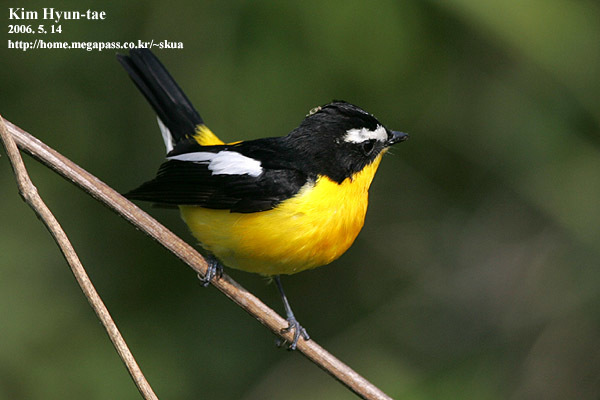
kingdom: Animalia
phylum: Chordata
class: Aves
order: Passeriformes
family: Muscicapidae
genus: Ficedula
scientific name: Ficedula zanthopygia
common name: Yellow-rumped flycatcher
